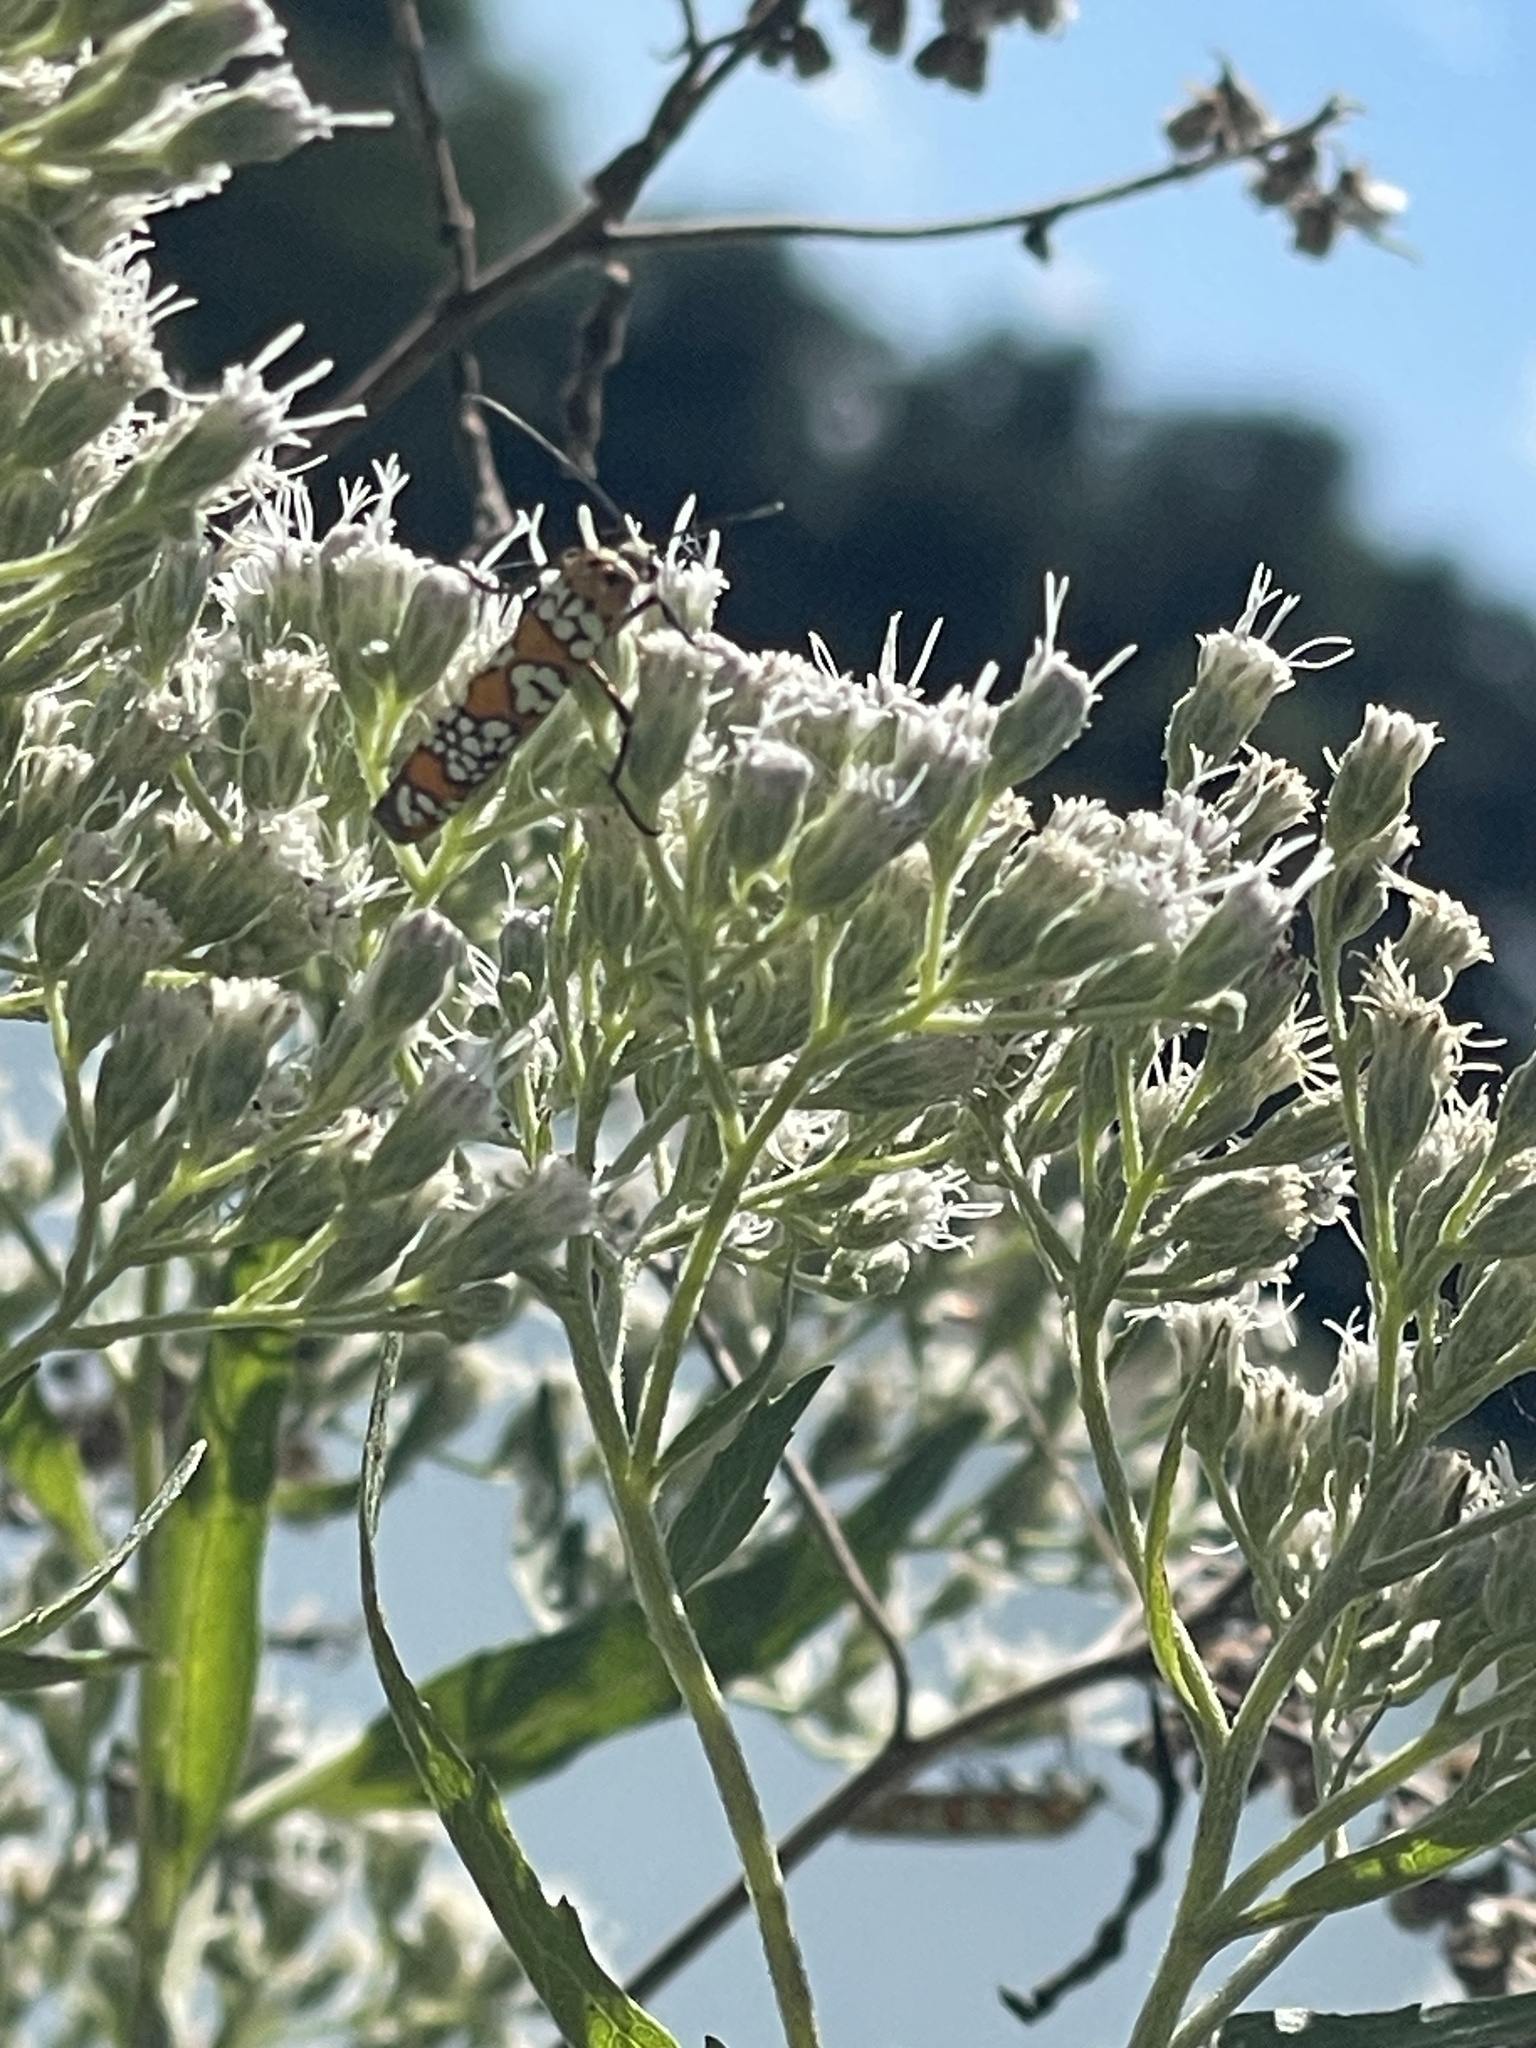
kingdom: Animalia
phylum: Arthropoda
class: Insecta
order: Lepidoptera
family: Attevidae
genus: Atteva
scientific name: Atteva punctella
